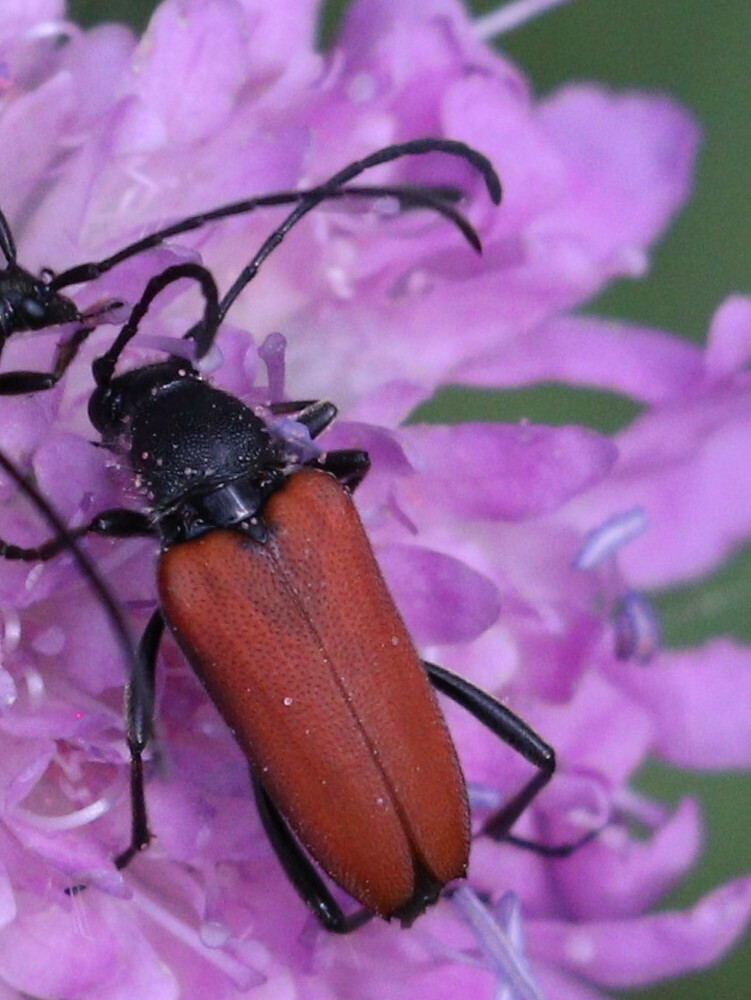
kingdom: Animalia
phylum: Arthropoda
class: Insecta
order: Coleoptera
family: Cerambycidae
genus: Anastrangalia
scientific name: Anastrangalia sanguinolenta
